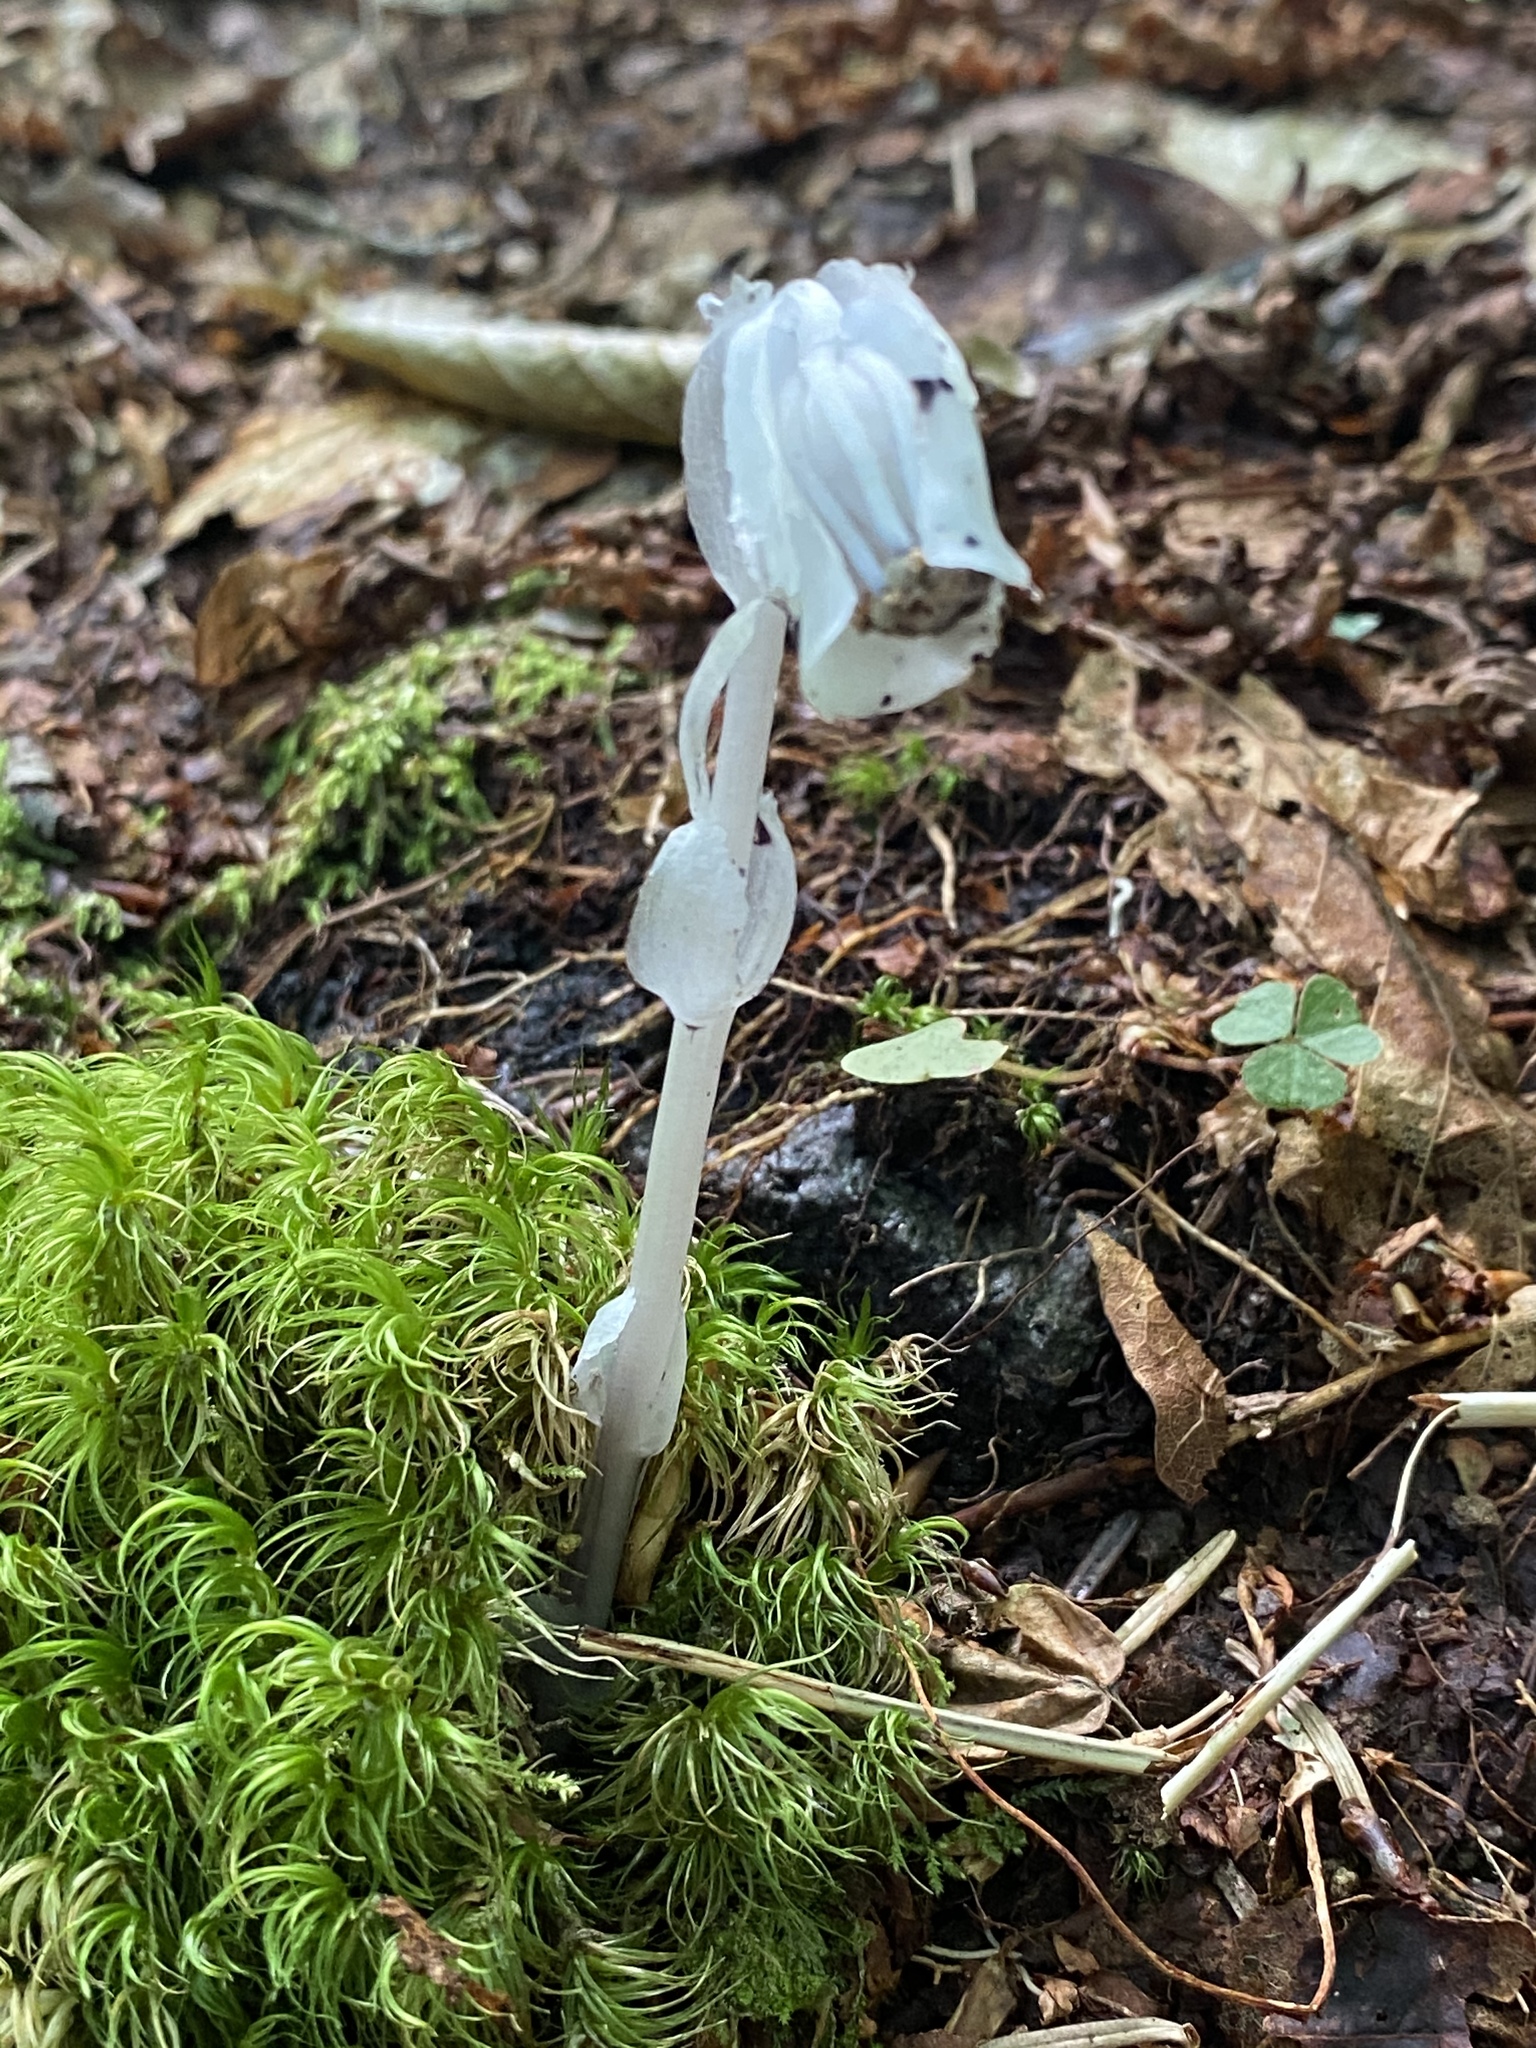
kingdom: Plantae
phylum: Tracheophyta
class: Magnoliopsida
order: Ericales
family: Ericaceae
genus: Monotropa
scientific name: Monotropa uniflora
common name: Convulsion root
